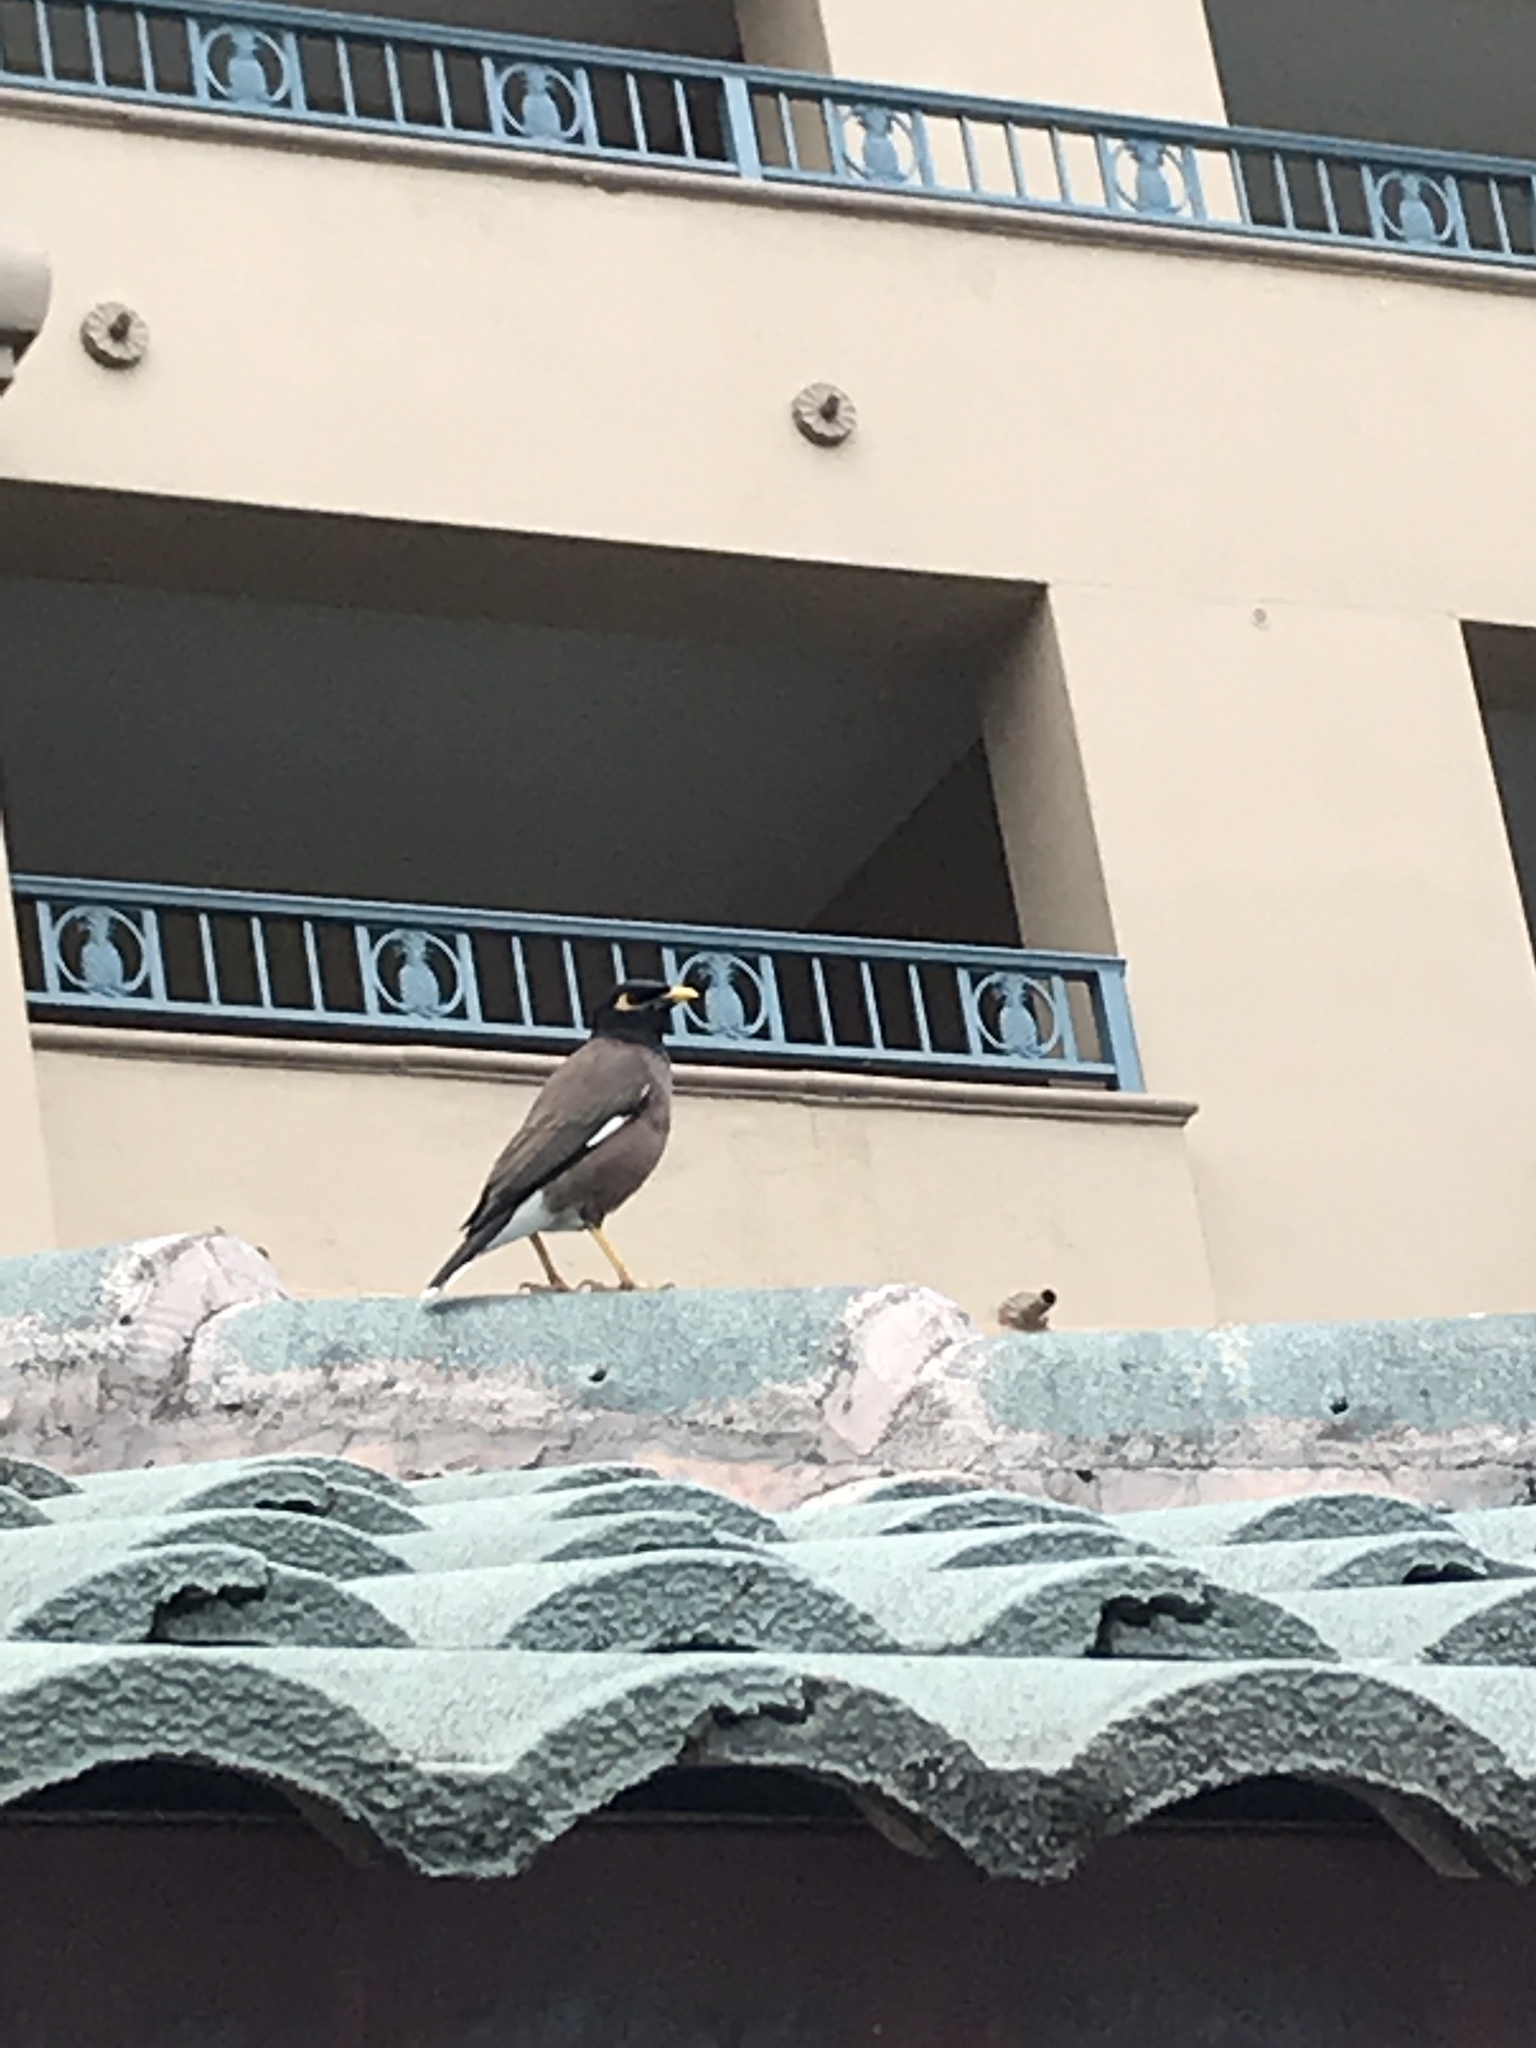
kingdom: Animalia
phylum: Chordata
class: Aves
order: Passeriformes
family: Sturnidae
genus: Acridotheres
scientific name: Acridotheres tristis
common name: Common myna
